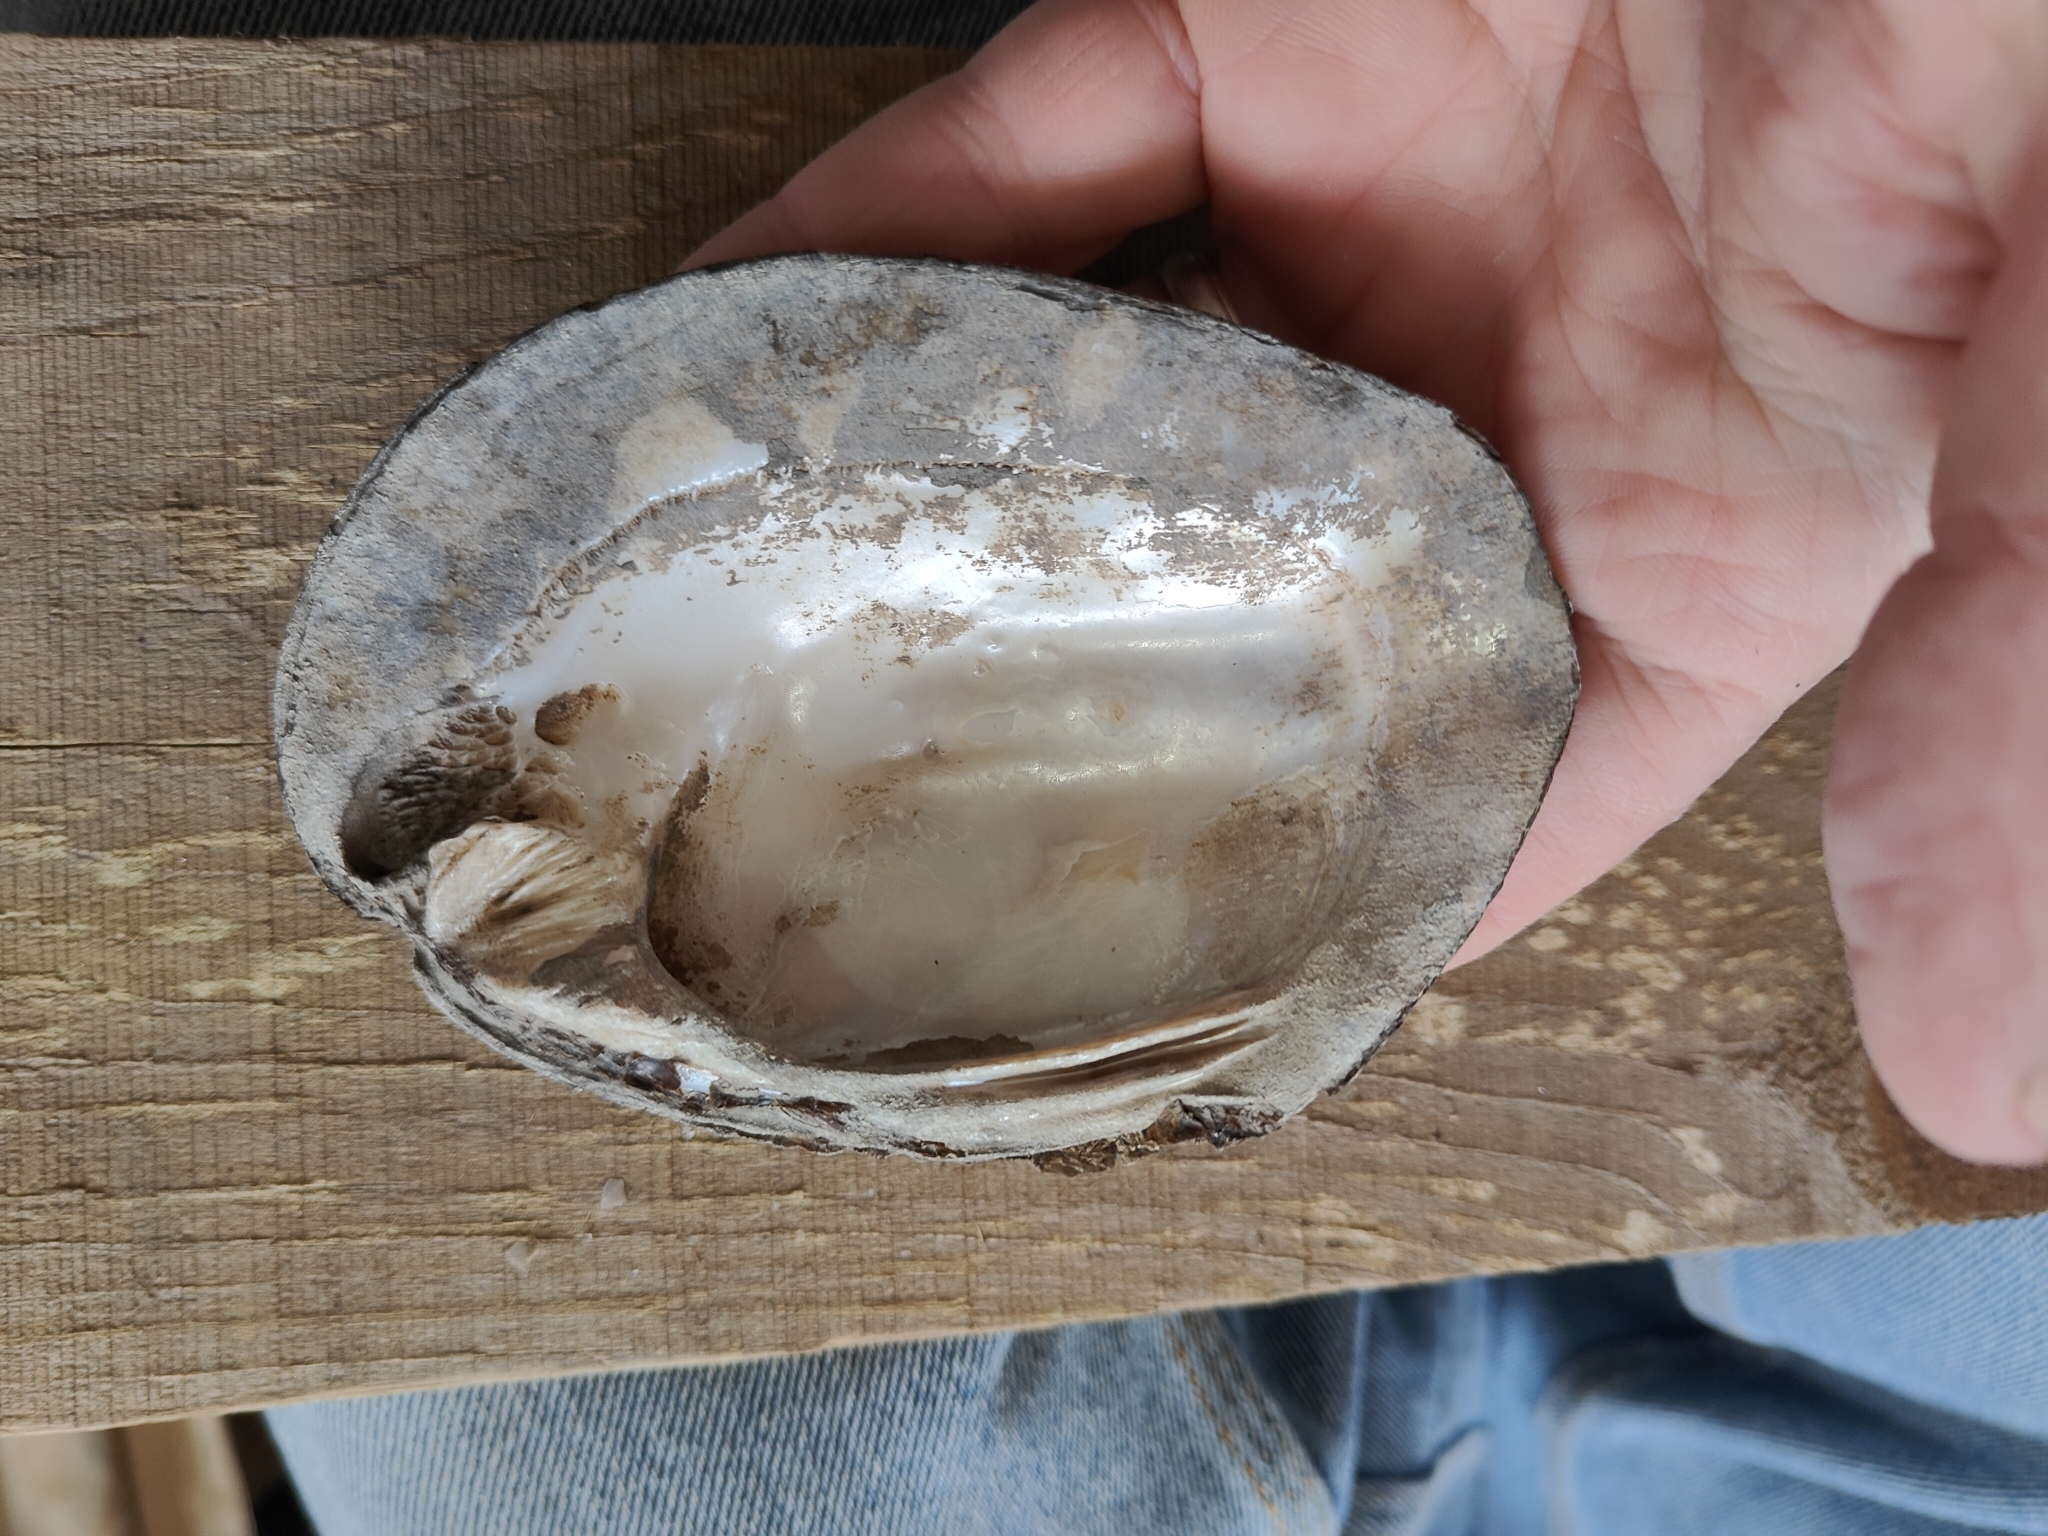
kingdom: Animalia
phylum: Mollusca
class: Bivalvia
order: Unionida
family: Unionidae
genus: Amblema
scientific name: Amblema plicata
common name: Threeridge
